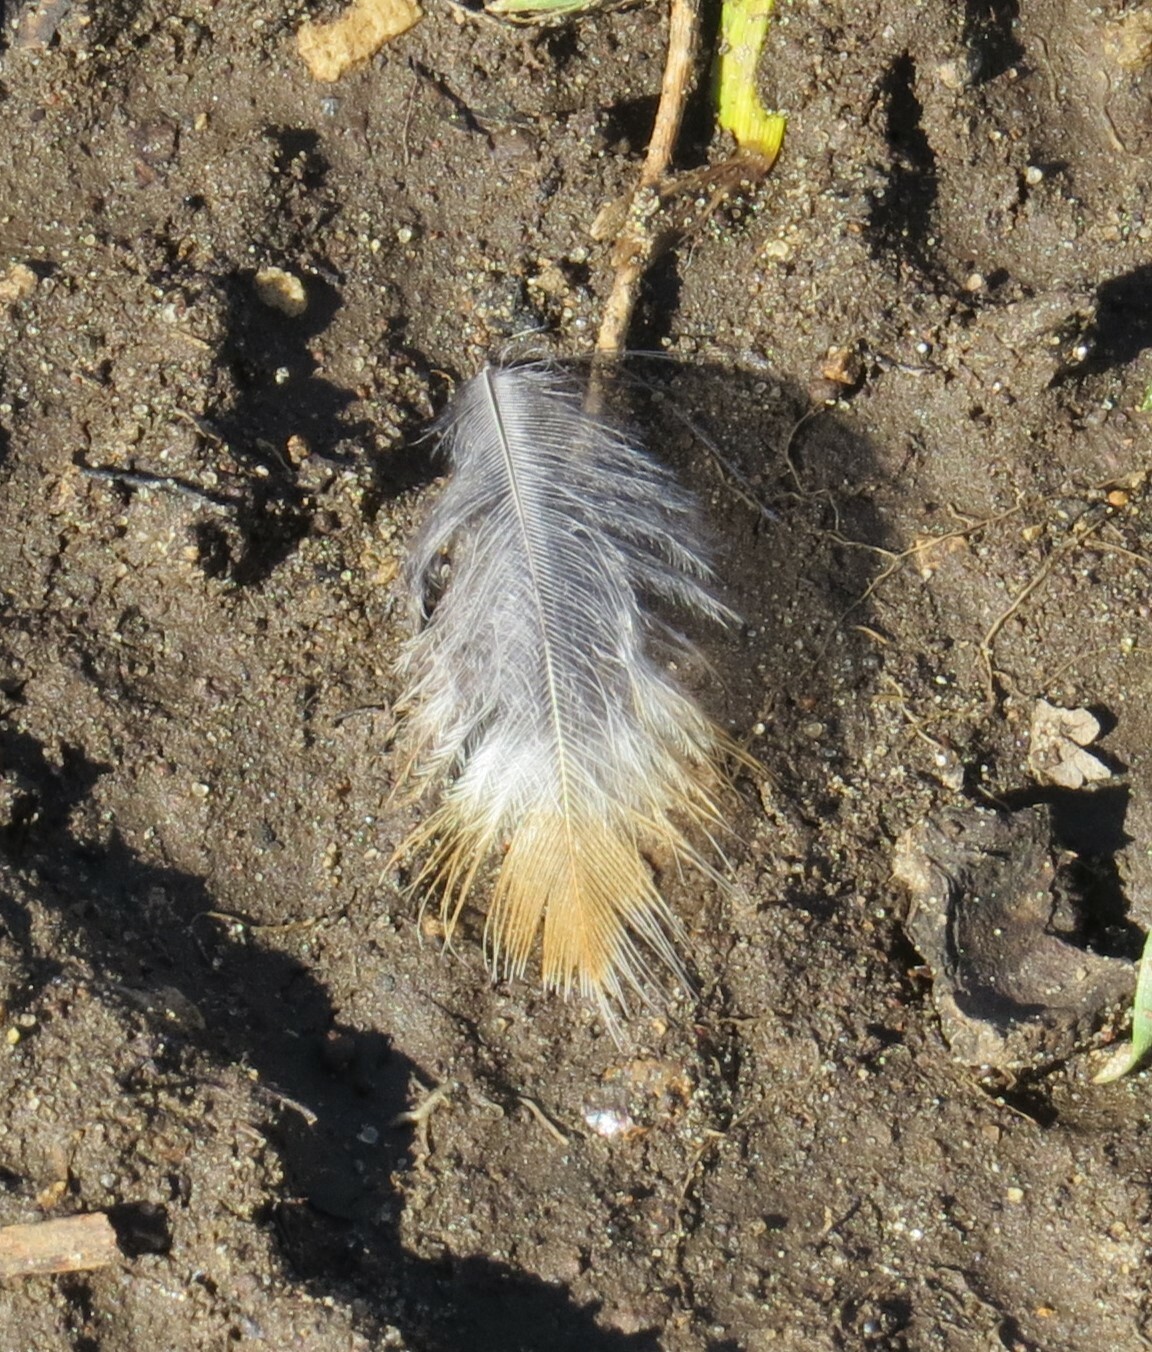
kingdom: Animalia
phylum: Chordata
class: Aves
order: Passeriformes
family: Turdidae
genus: Turdus
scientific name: Turdus migratorius
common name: American robin
